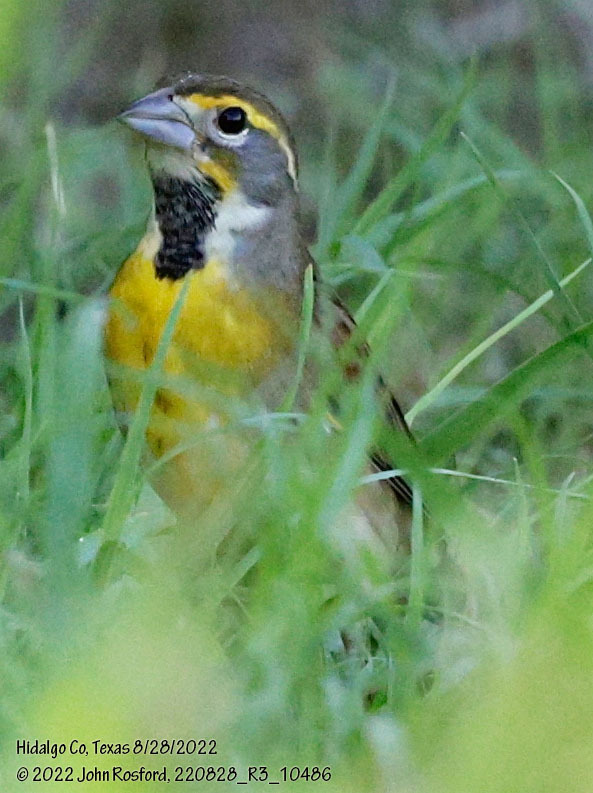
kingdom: Animalia
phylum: Chordata
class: Aves
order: Passeriformes
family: Cardinalidae
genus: Spiza
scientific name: Spiza americana
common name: Dickcissel
